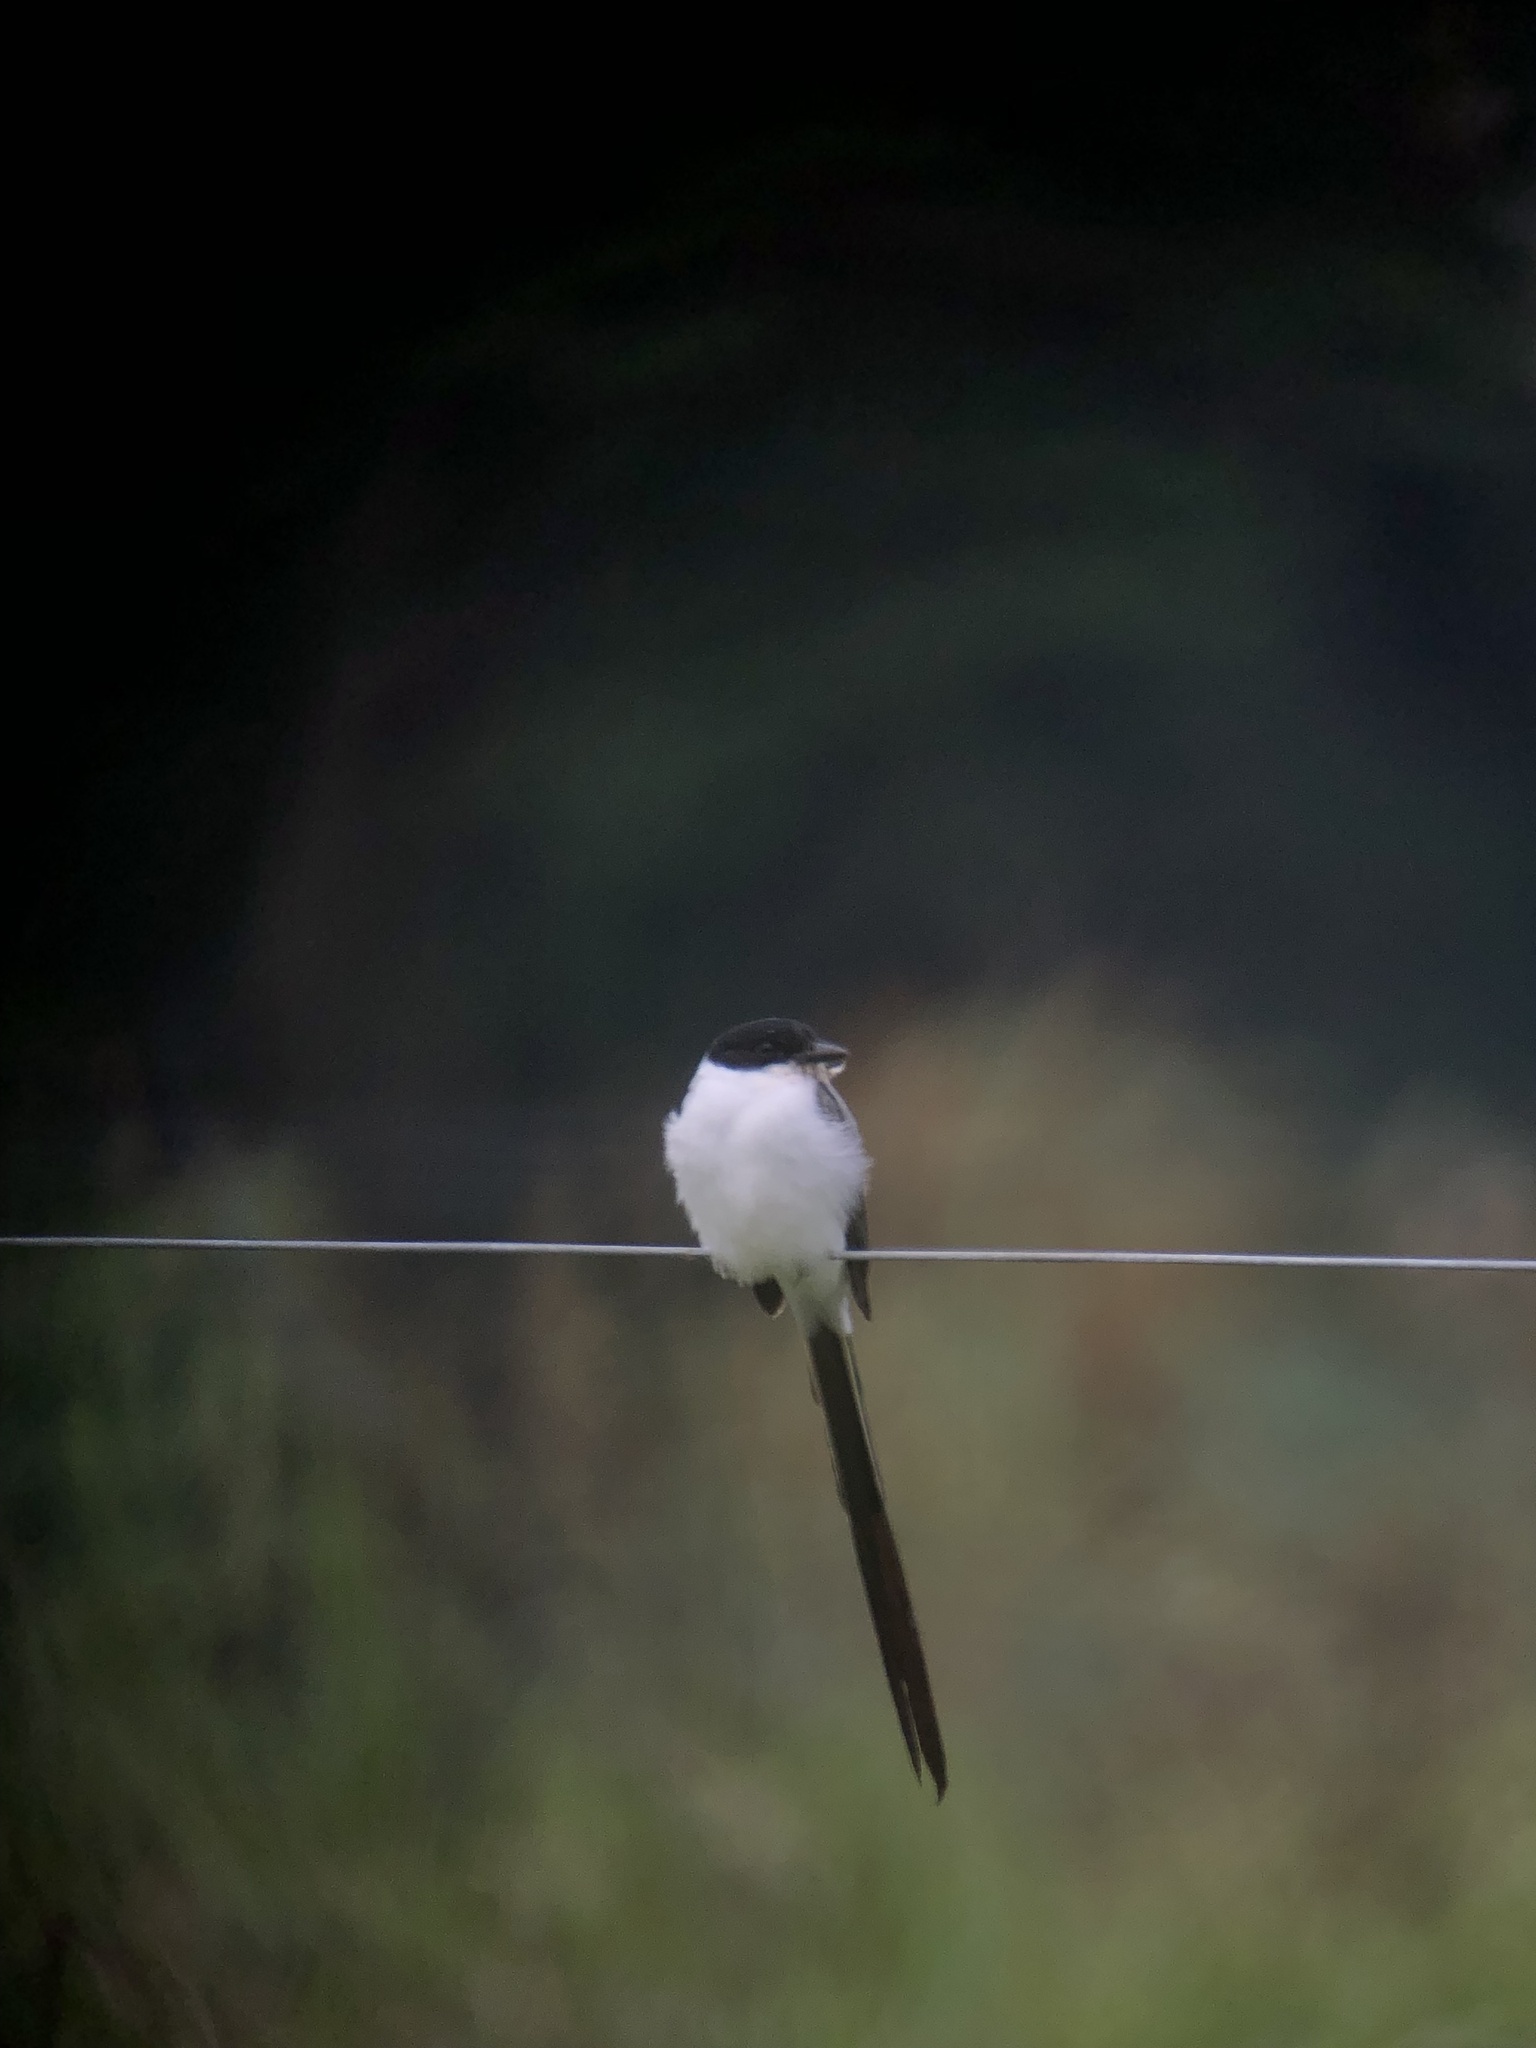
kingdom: Animalia
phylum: Chordata
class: Aves
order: Passeriformes
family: Tyrannidae
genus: Tyrannus
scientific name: Tyrannus savana
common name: Fork-tailed flycatcher
